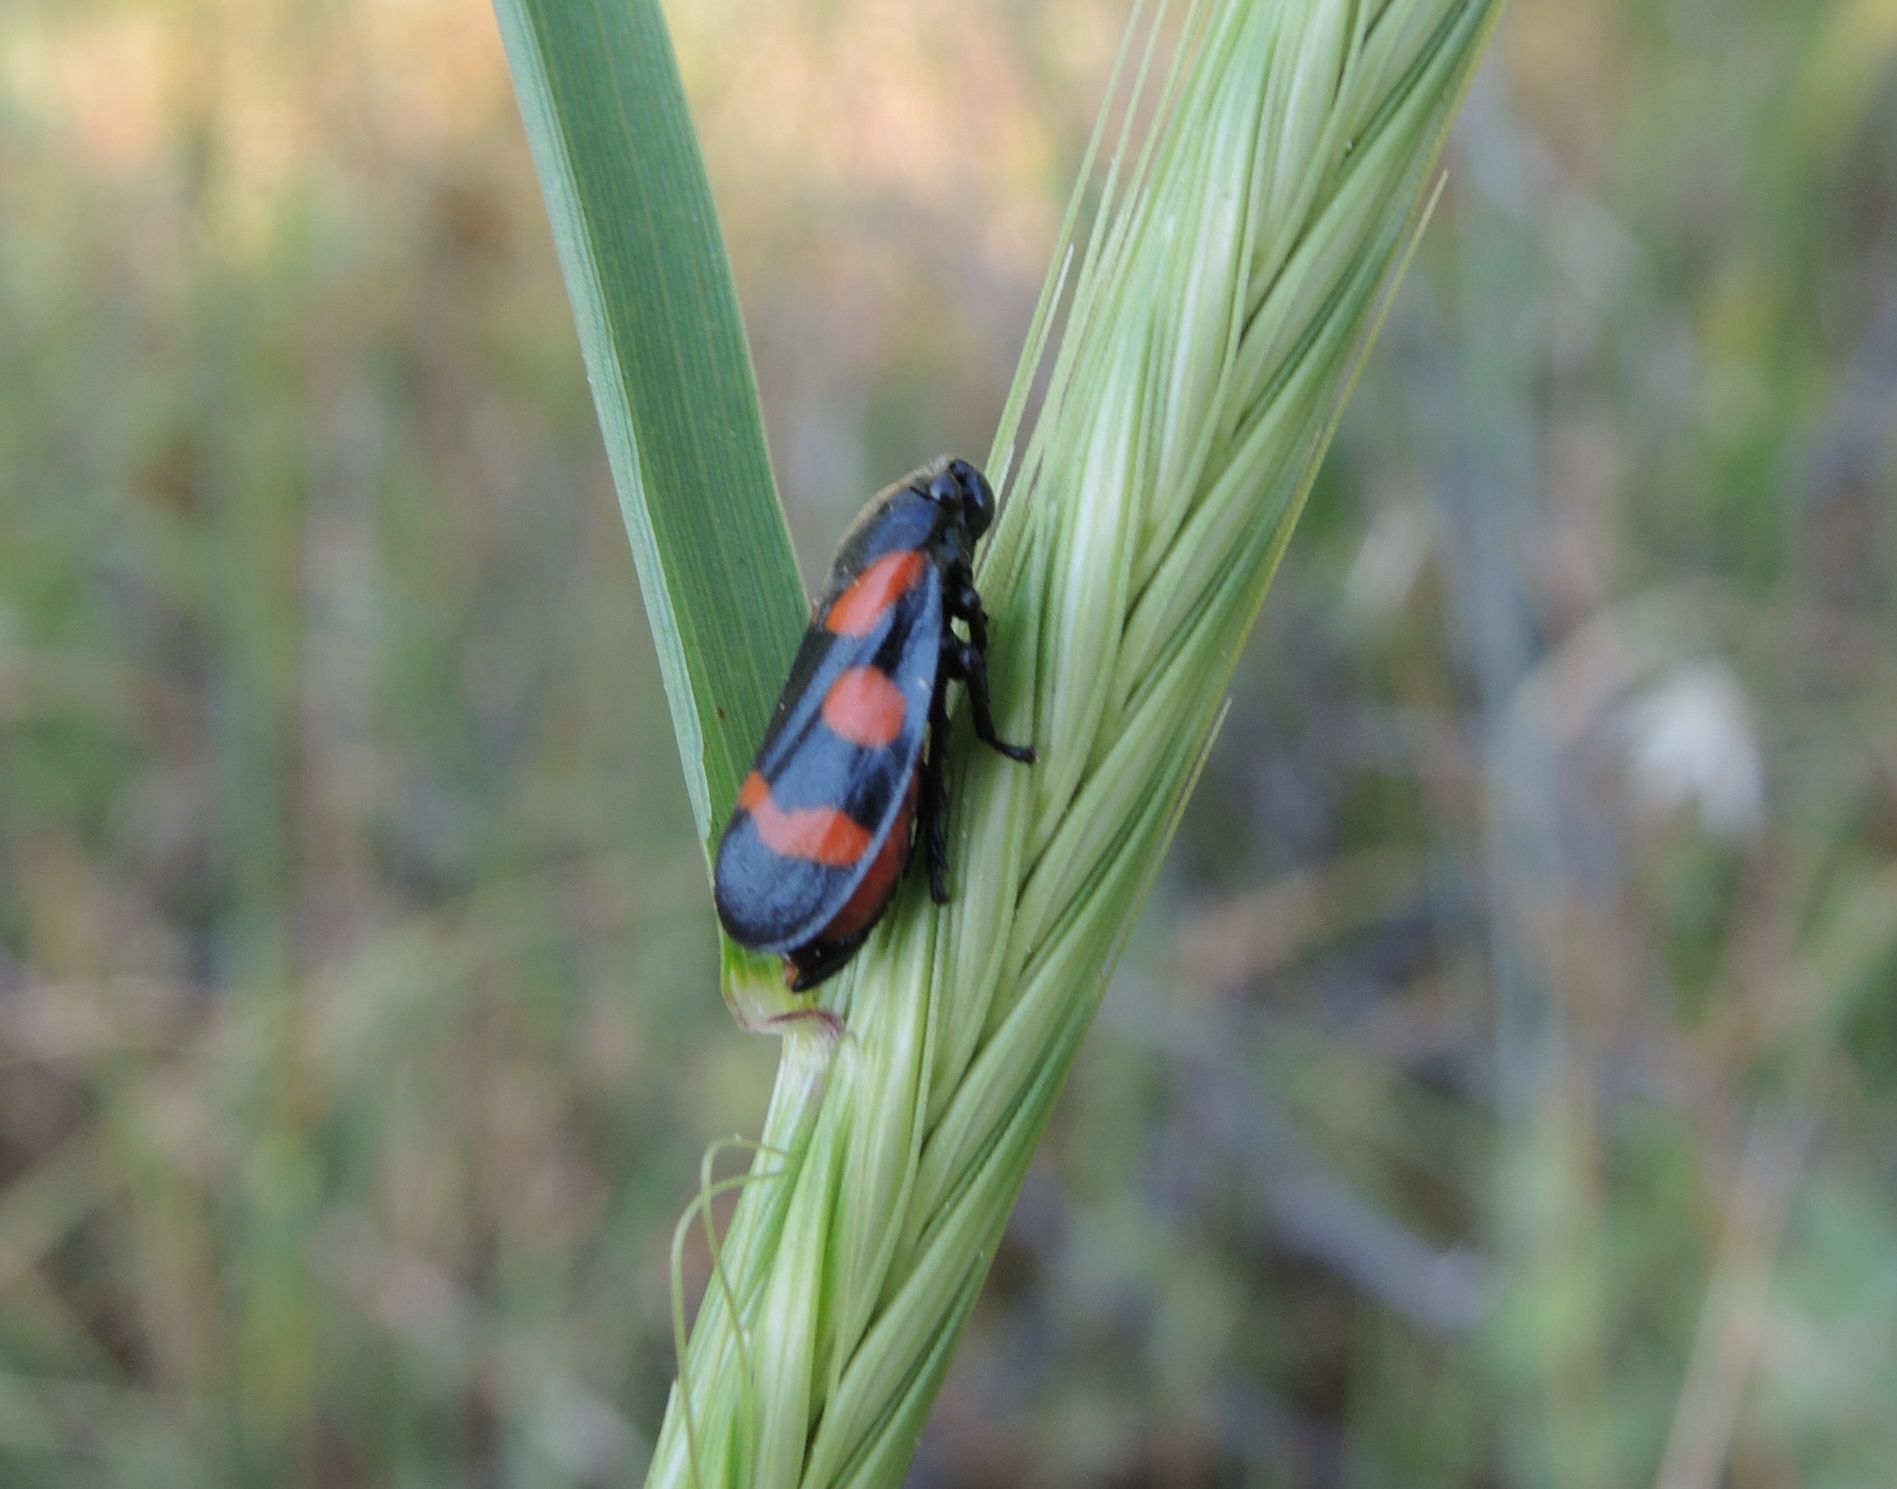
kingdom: Animalia
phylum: Arthropoda
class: Insecta
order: Hemiptera
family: Cercopidae
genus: Cercopis
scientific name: Cercopis sanguinolenta
